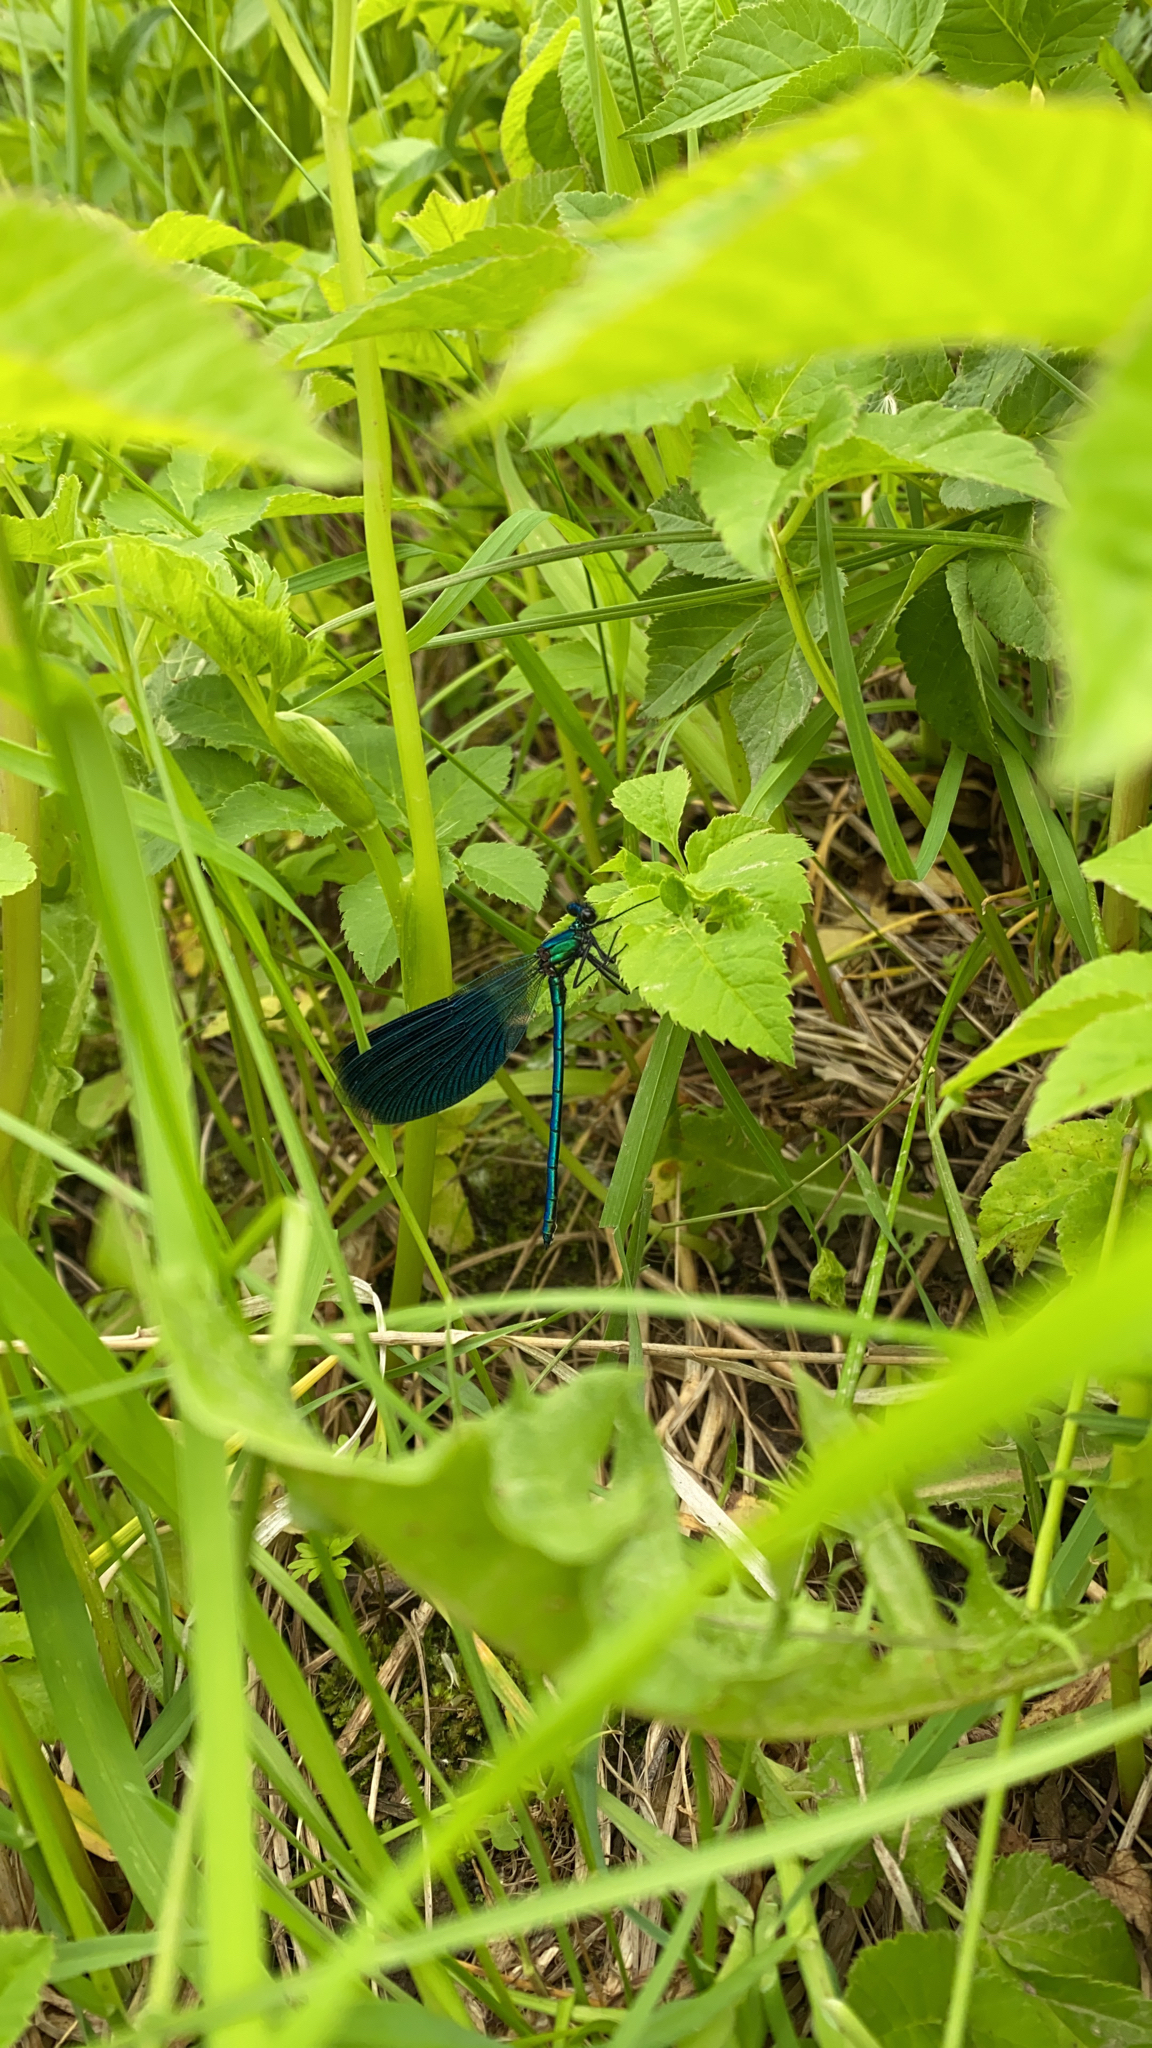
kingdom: Animalia
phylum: Arthropoda
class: Insecta
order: Odonata
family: Calopterygidae
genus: Calopteryx
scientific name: Calopteryx splendens
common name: Banded demoiselle
